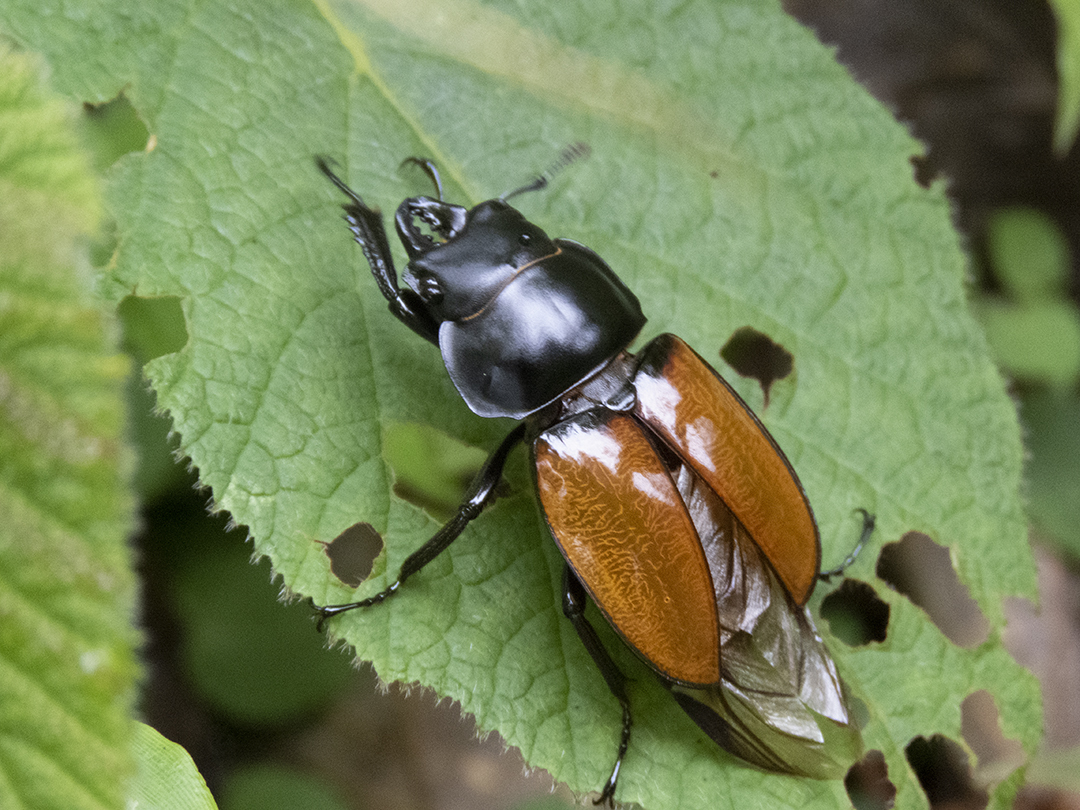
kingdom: Animalia
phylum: Arthropoda
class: Insecta
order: Coleoptera
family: Lucanidae
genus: Neolucanus
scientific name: Neolucanus castanopterus
